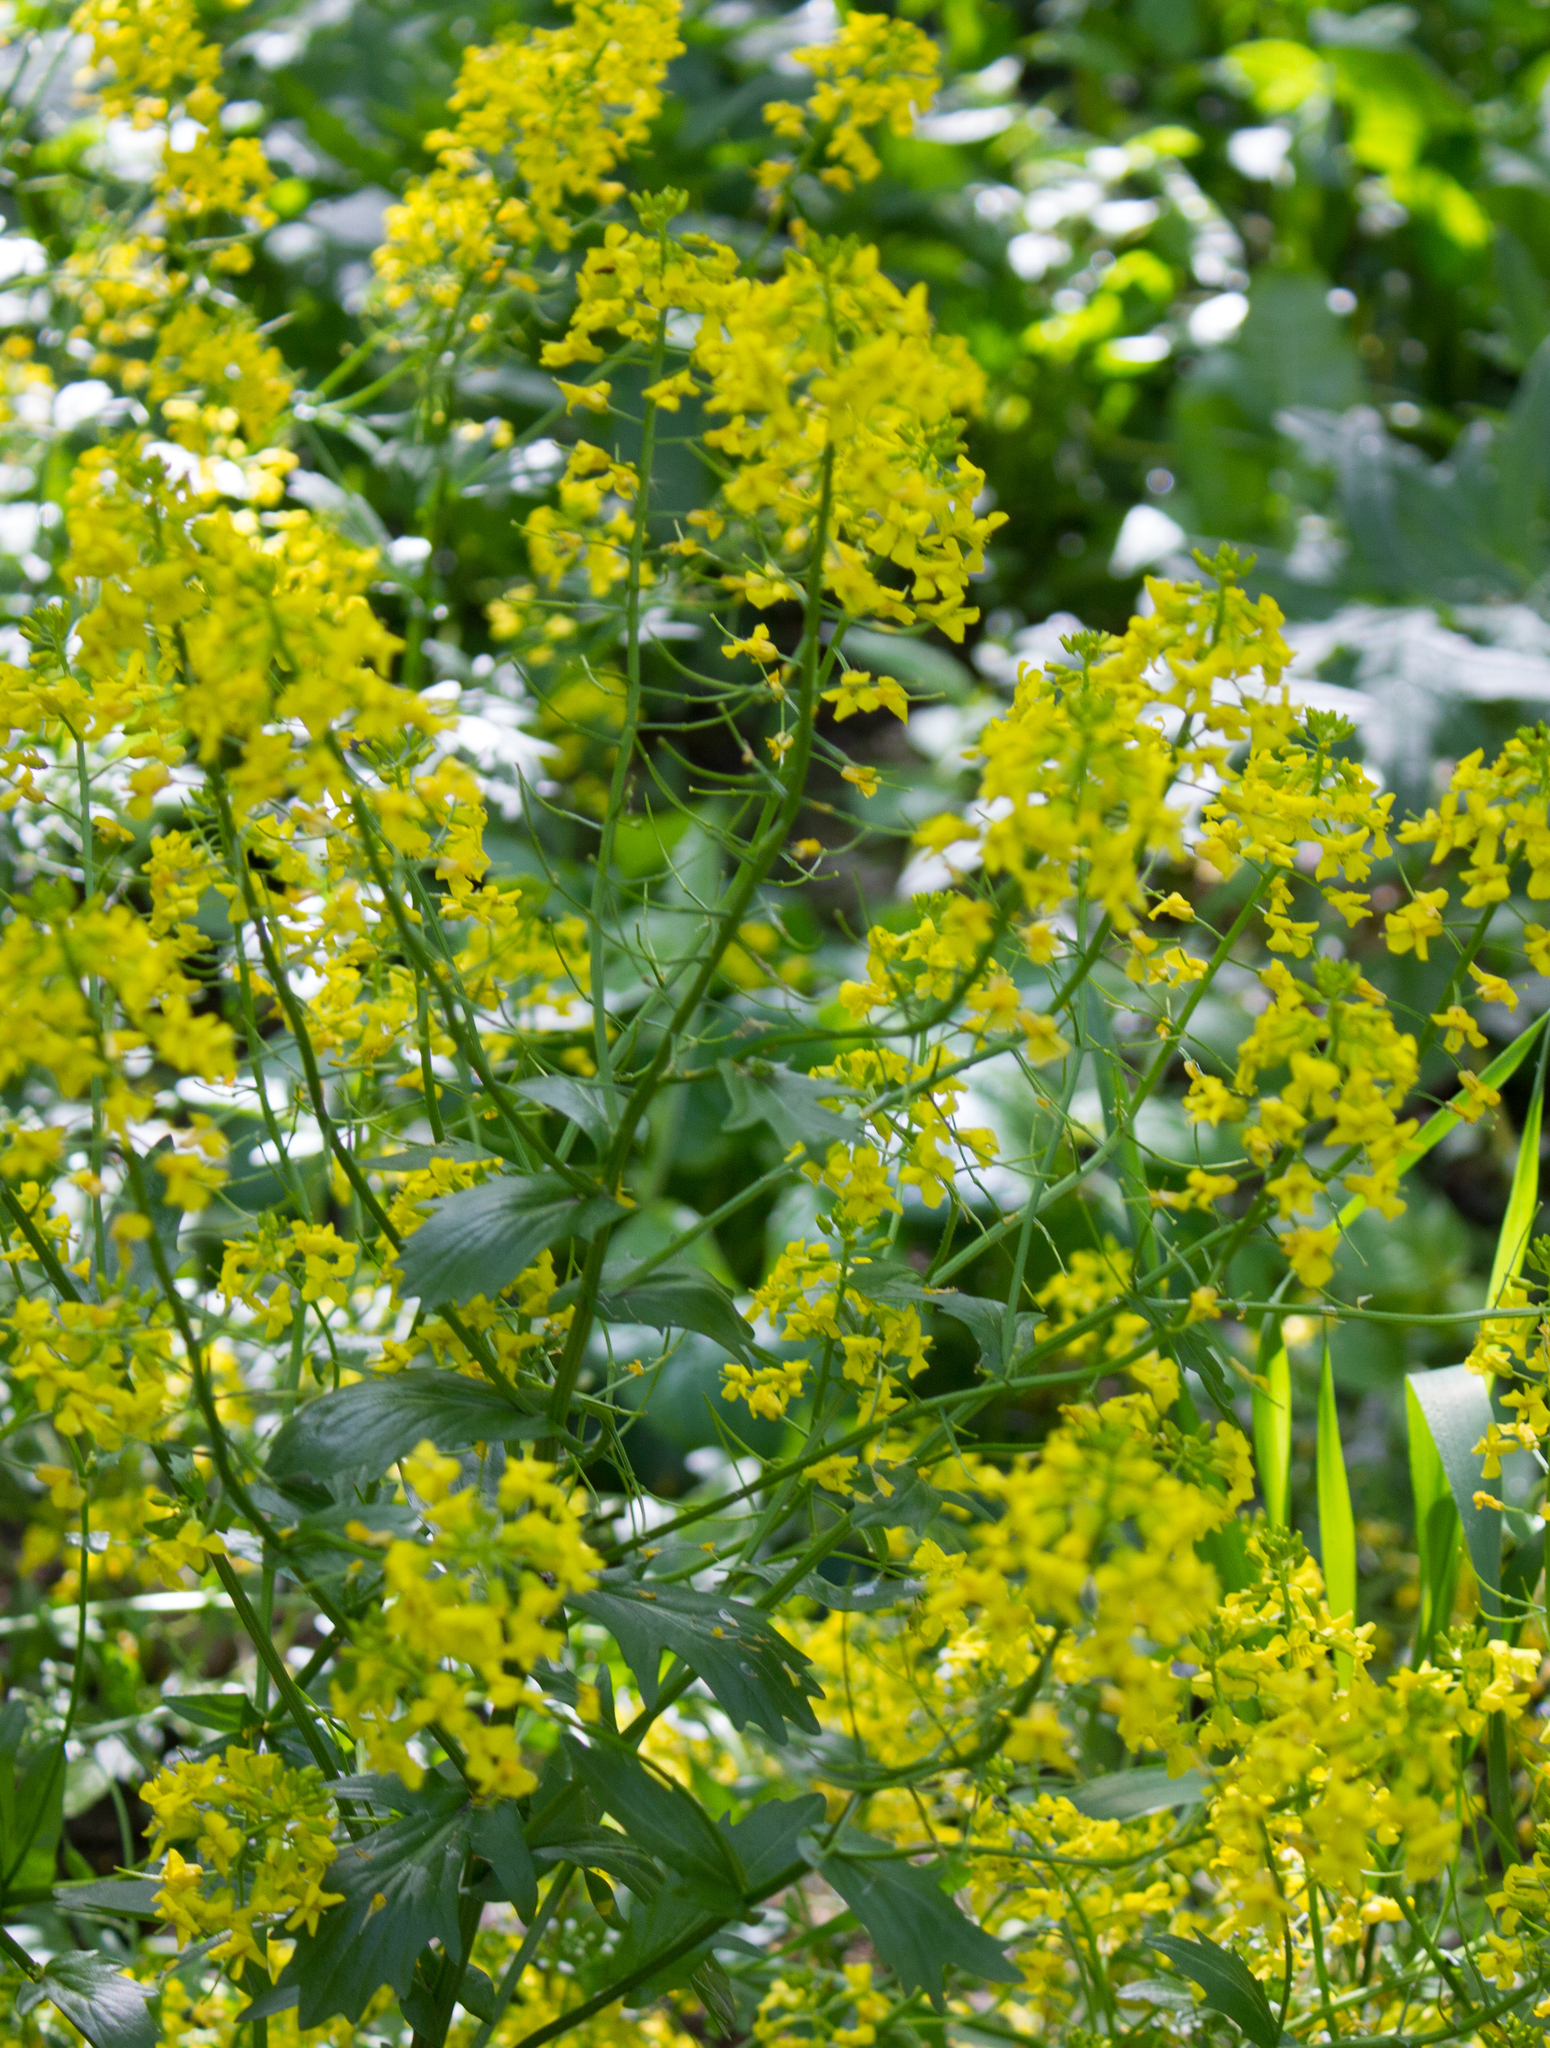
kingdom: Plantae
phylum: Tracheophyta
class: Magnoliopsida
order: Brassicales
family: Brassicaceae
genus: Barbarea
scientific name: Barbarea vulgaris
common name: Cressy-greens
